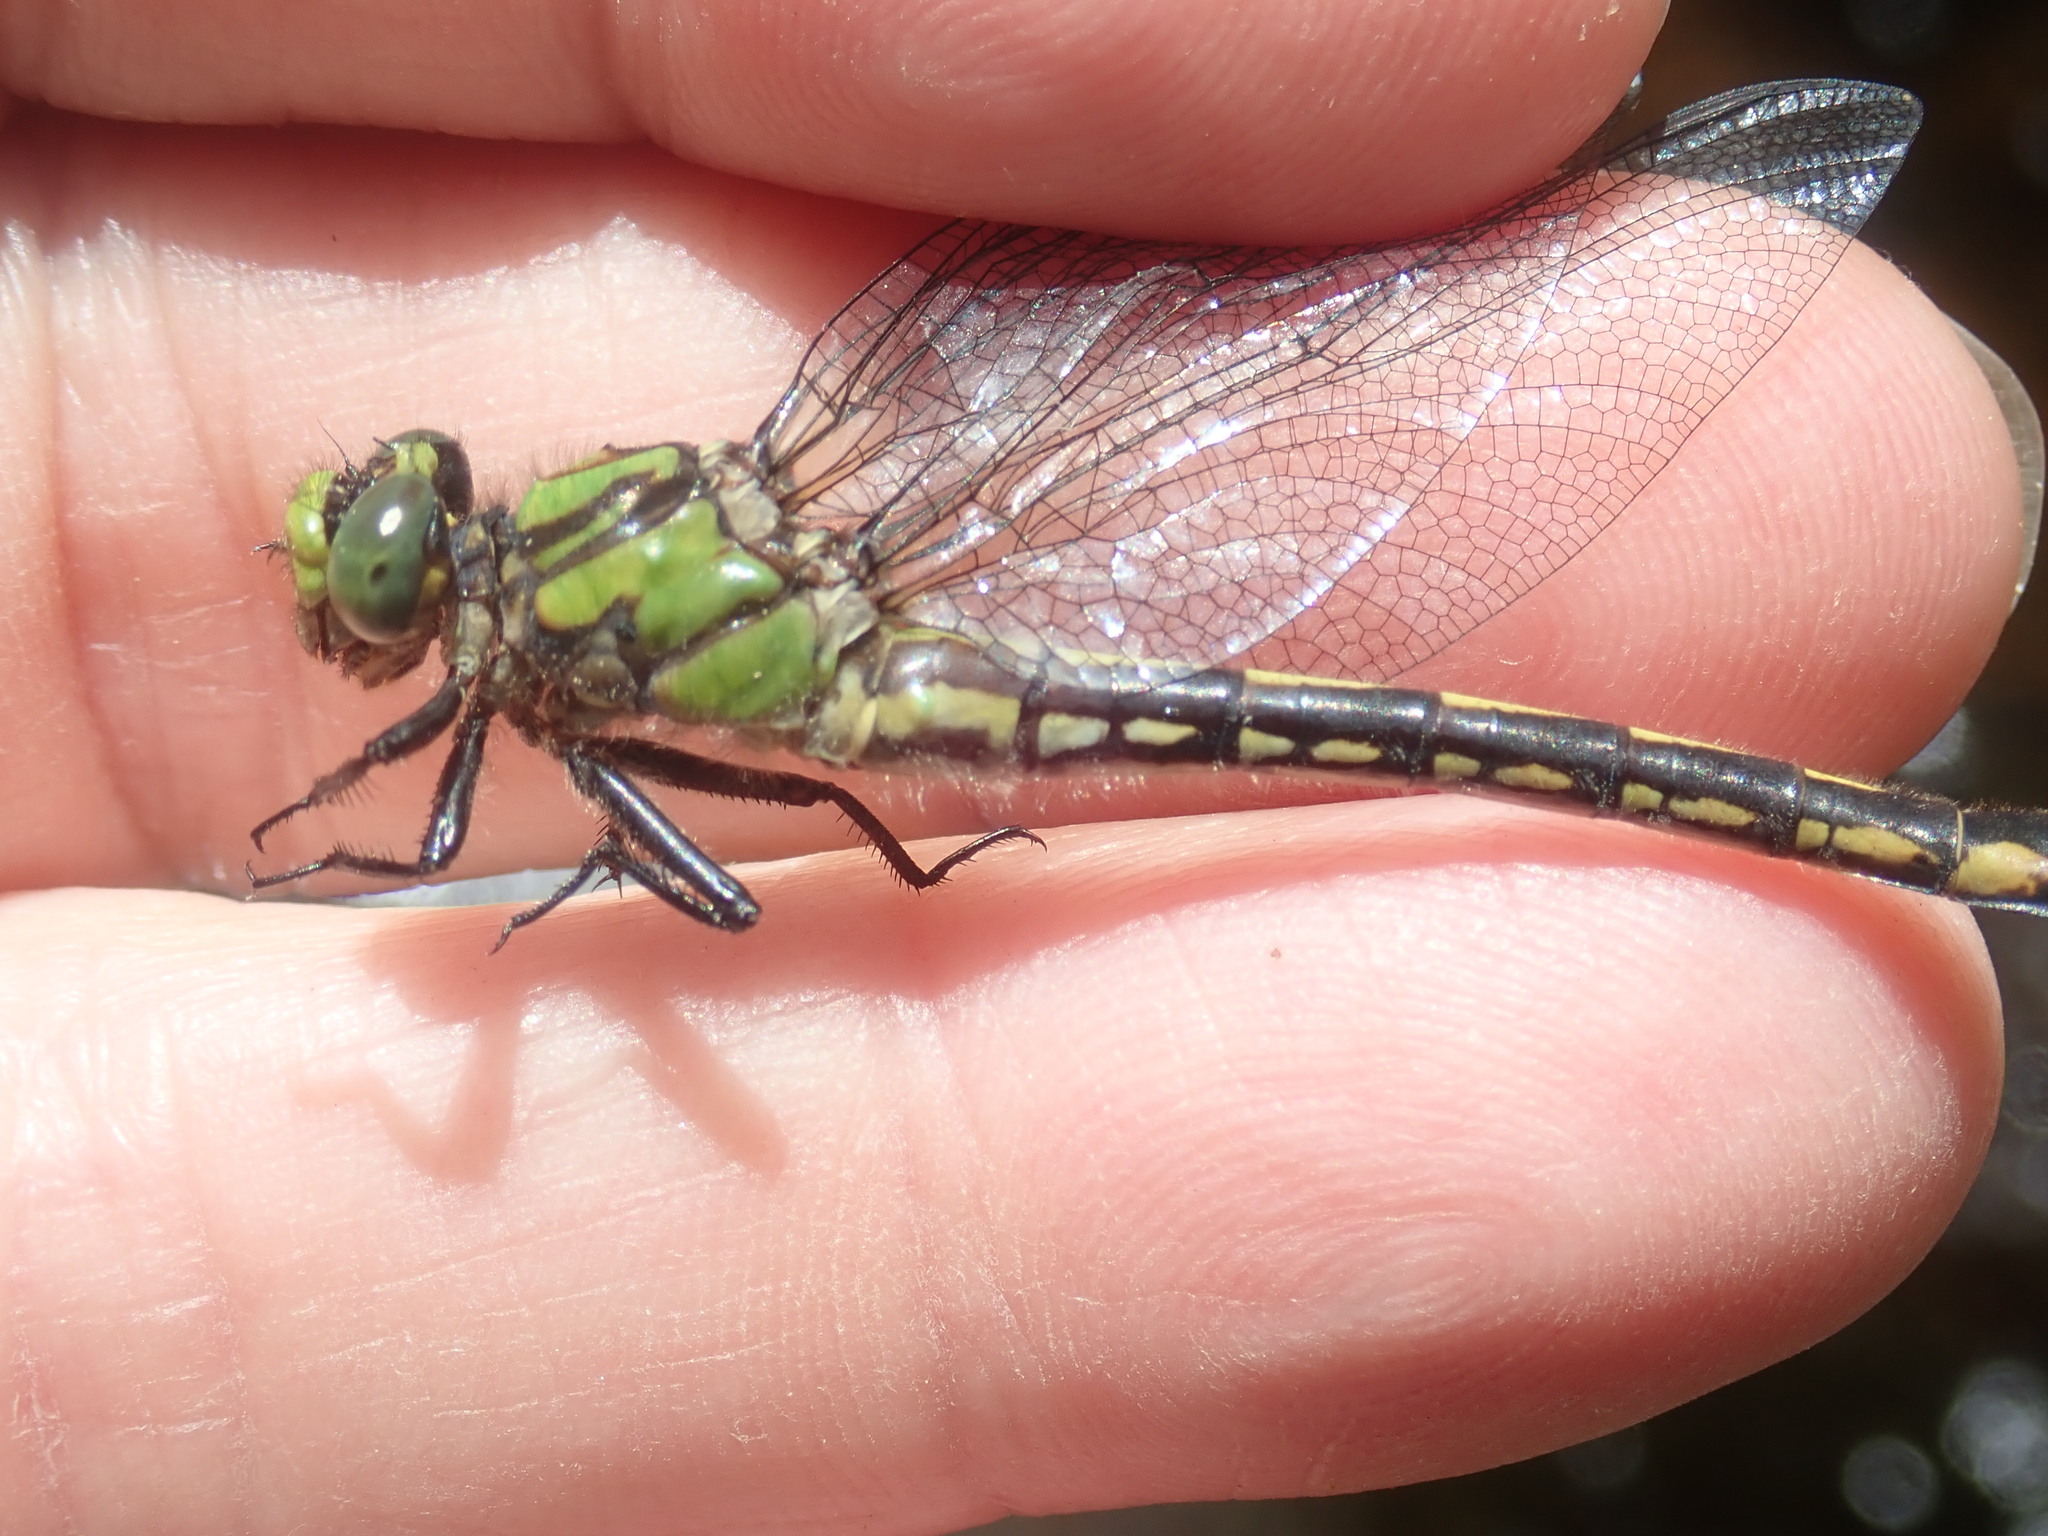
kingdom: Animalia
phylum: Arthropoda
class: Insecta
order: Odonata
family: Gomphidae
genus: Ophiogomphus
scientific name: Ophiogomphus mainensis
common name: Maine snaketail
